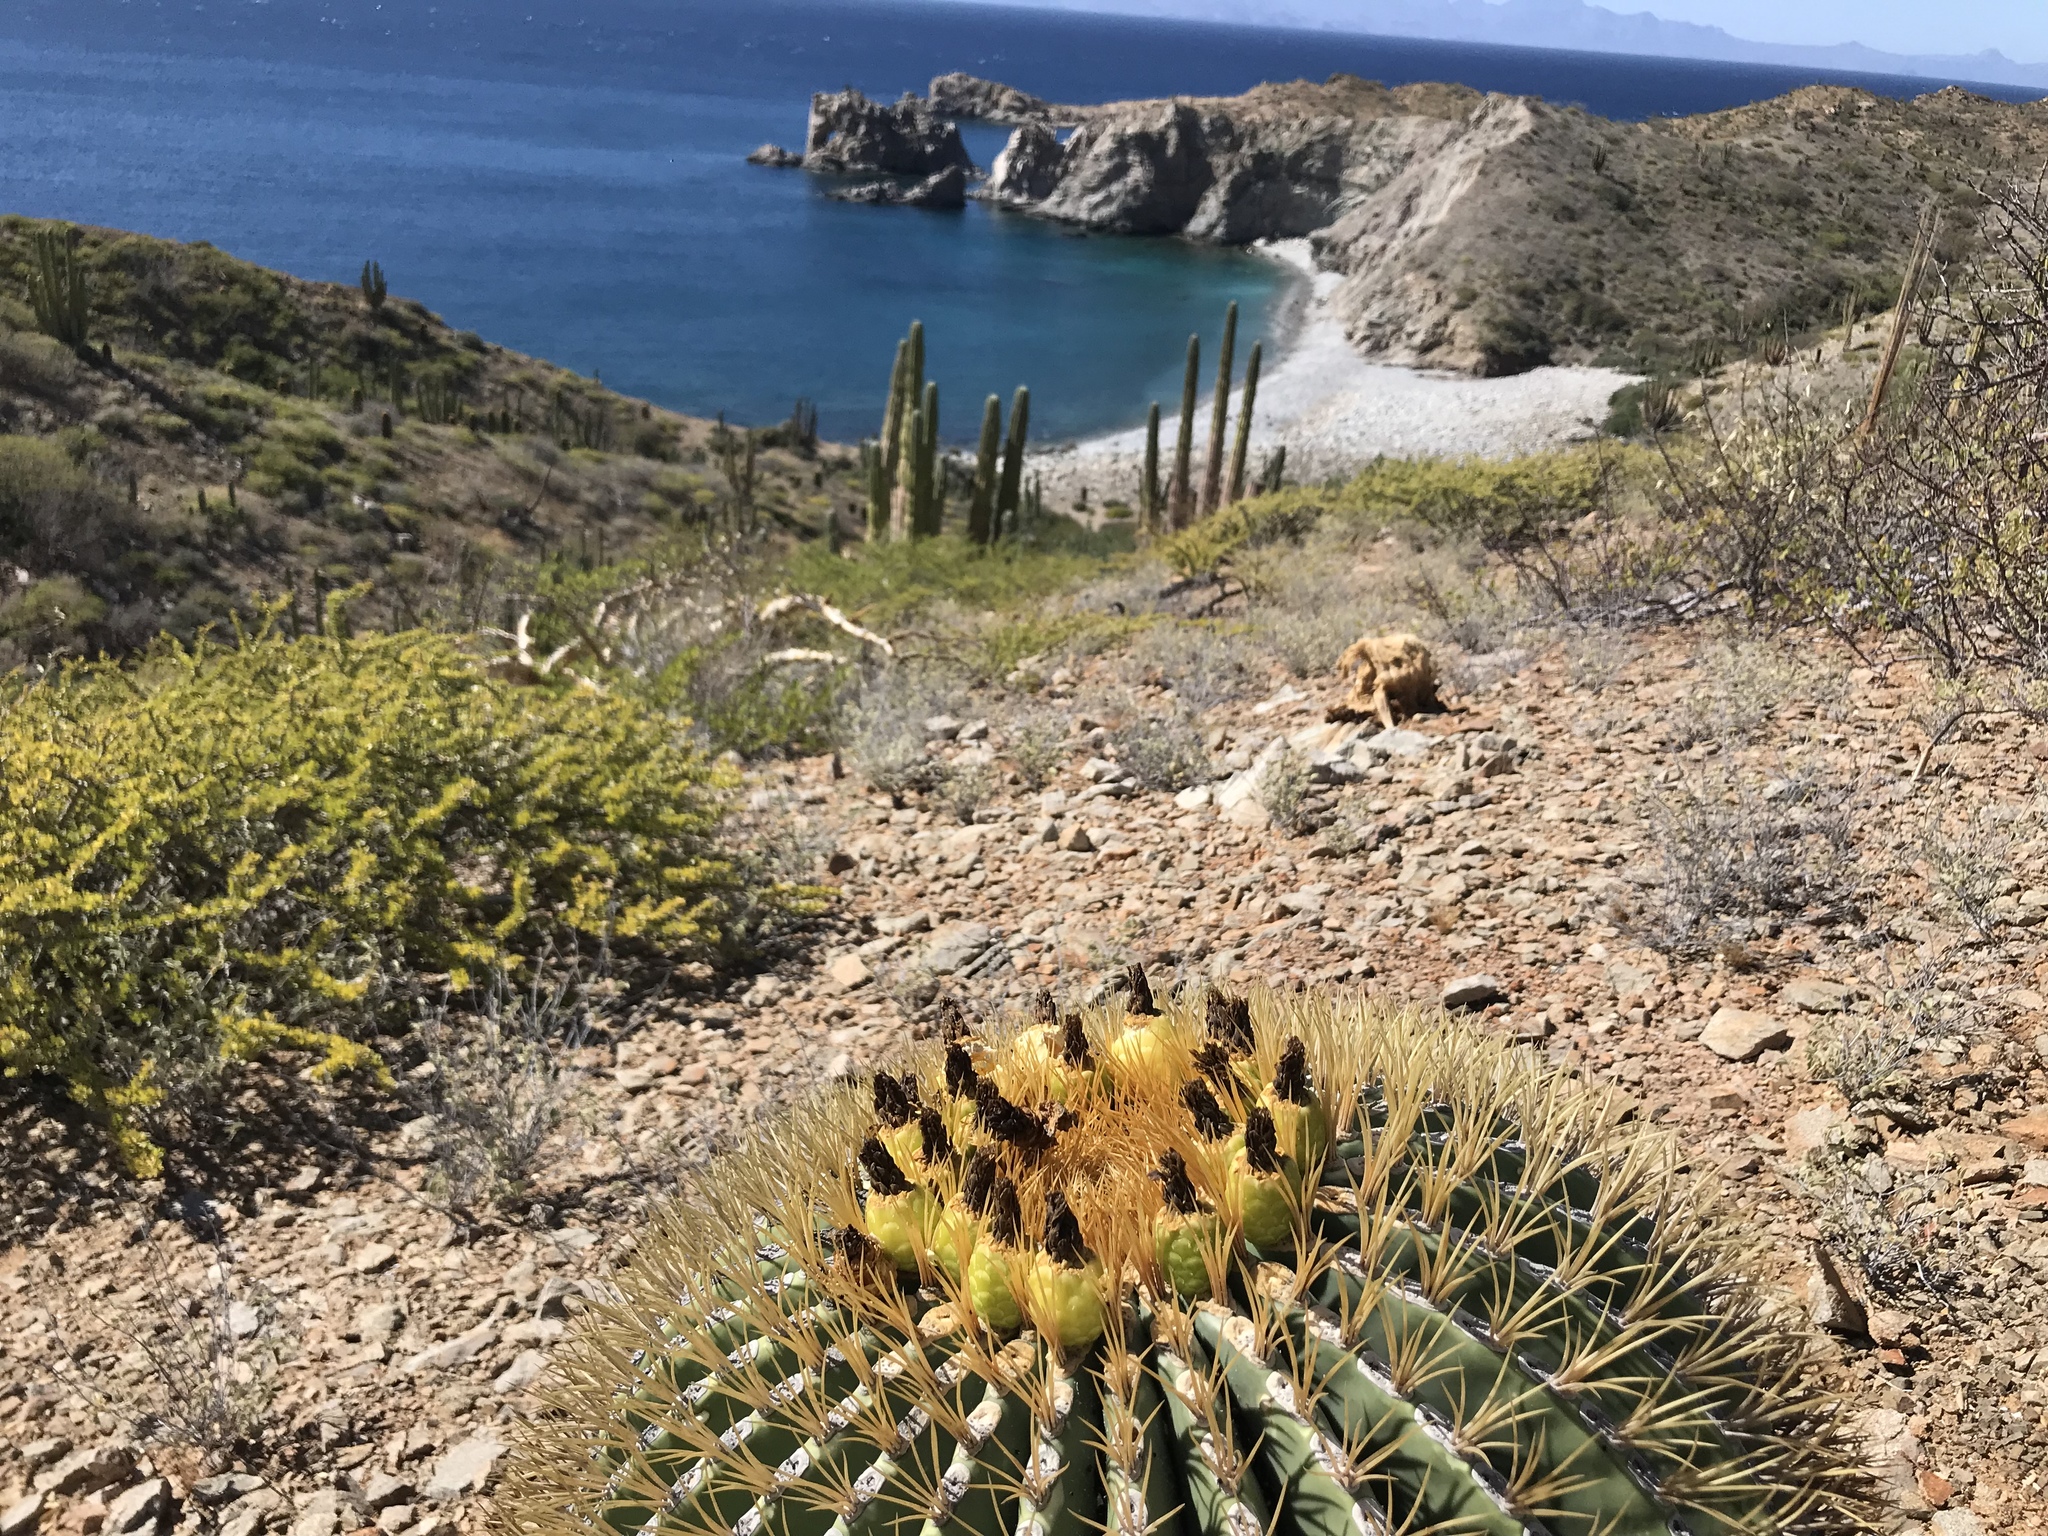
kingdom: Plantae
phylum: Tracheophyta
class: Magnoliopsida
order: Caryophyllales
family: Cactaceae
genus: Ferocactus
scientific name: Ferocactus diguetii
